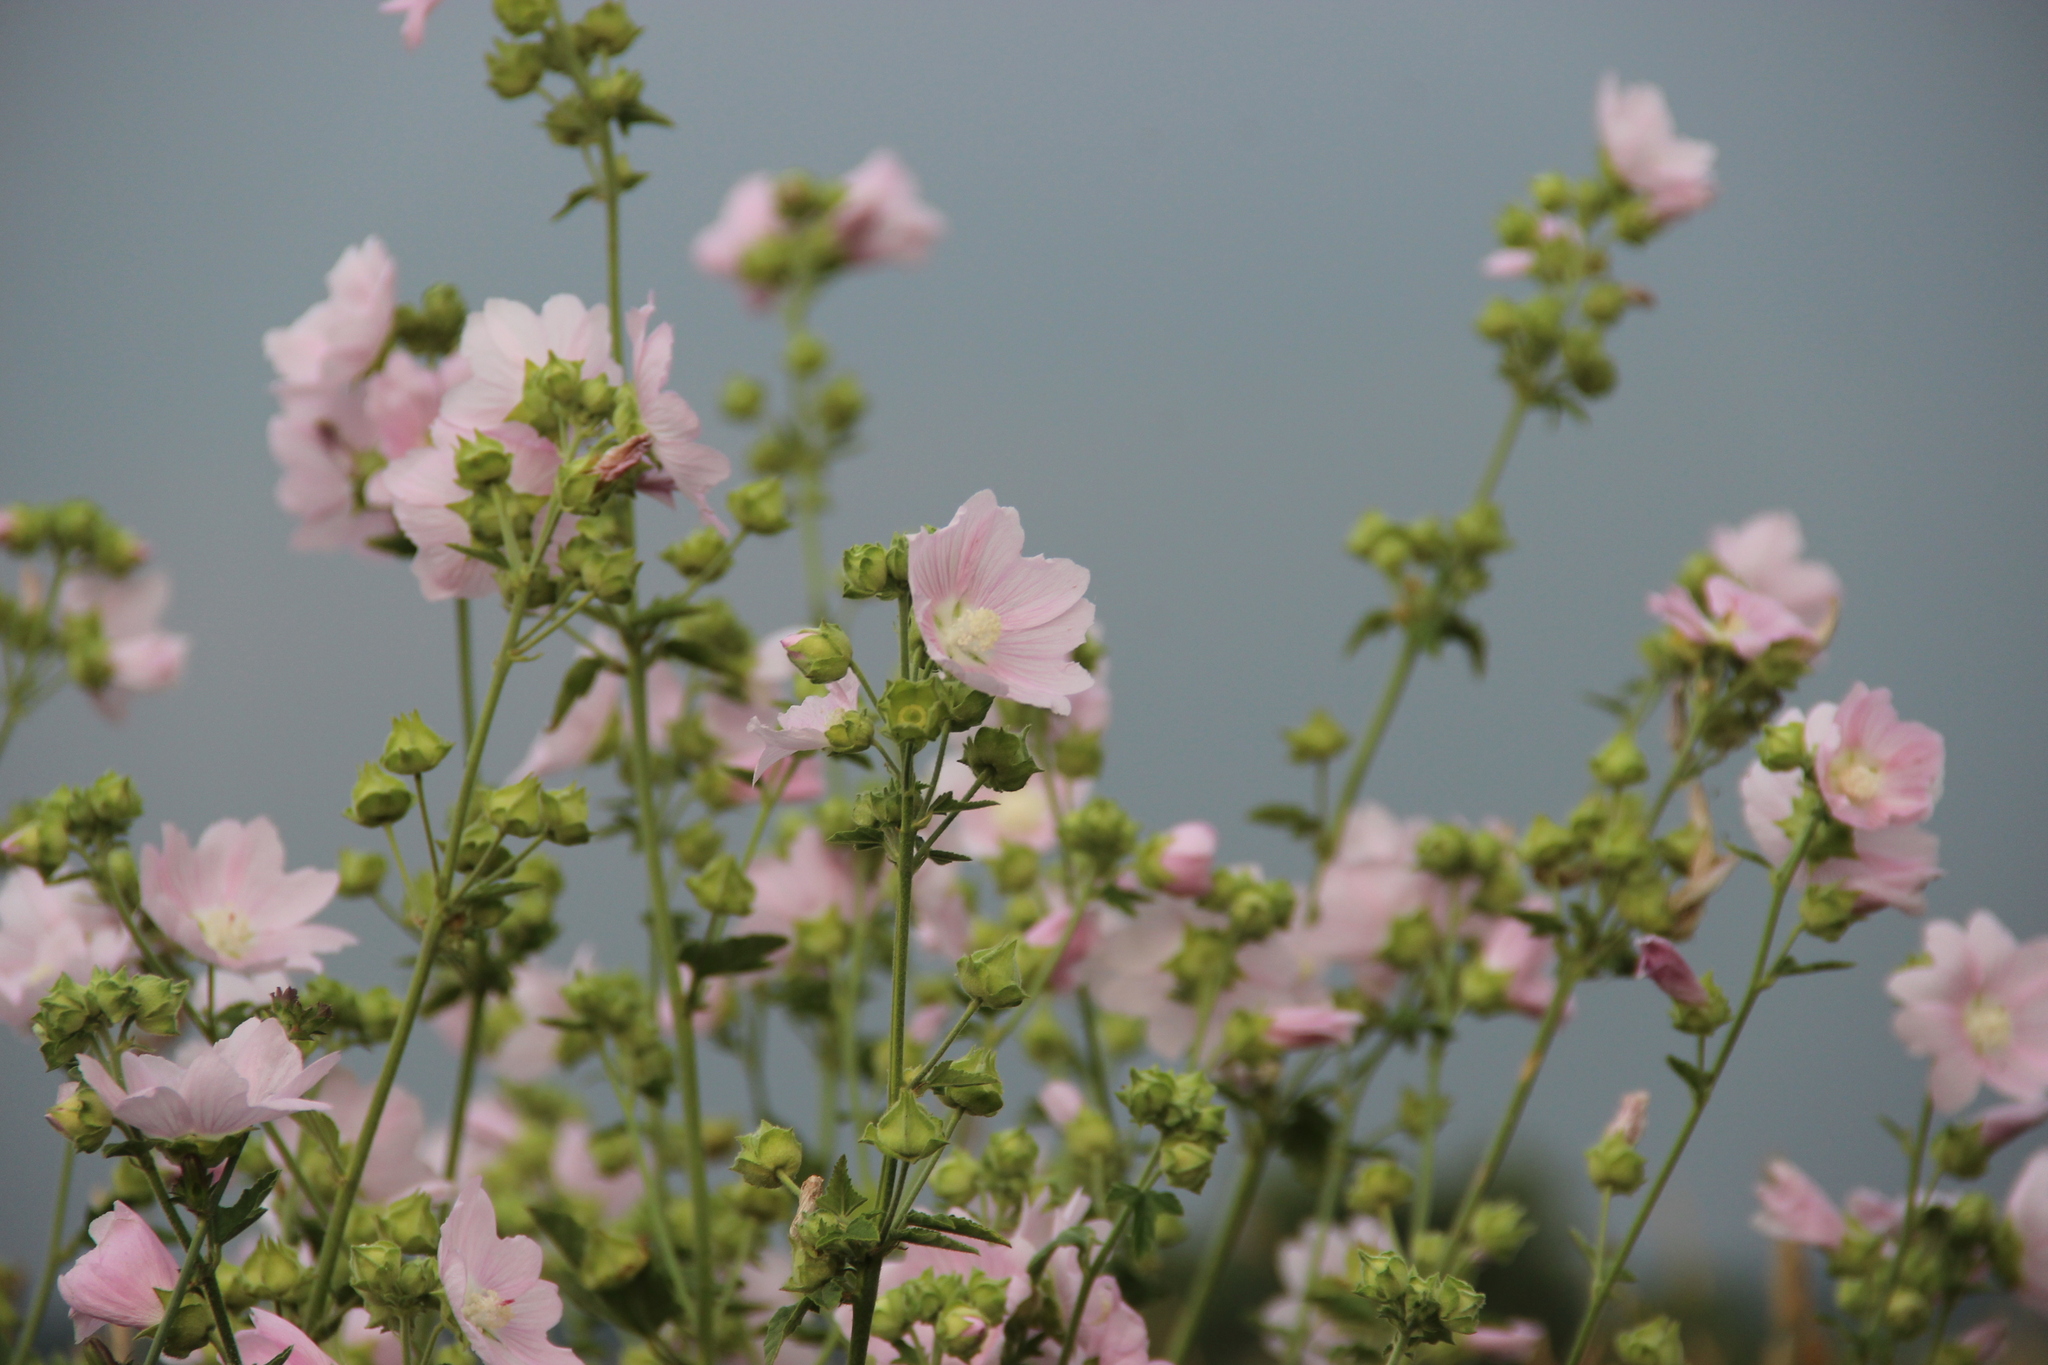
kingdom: Plantae
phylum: Tracheophyta
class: Magnoliopsida
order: Malvales
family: Malvaceae
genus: Malva
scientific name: Malva thuringiaca
